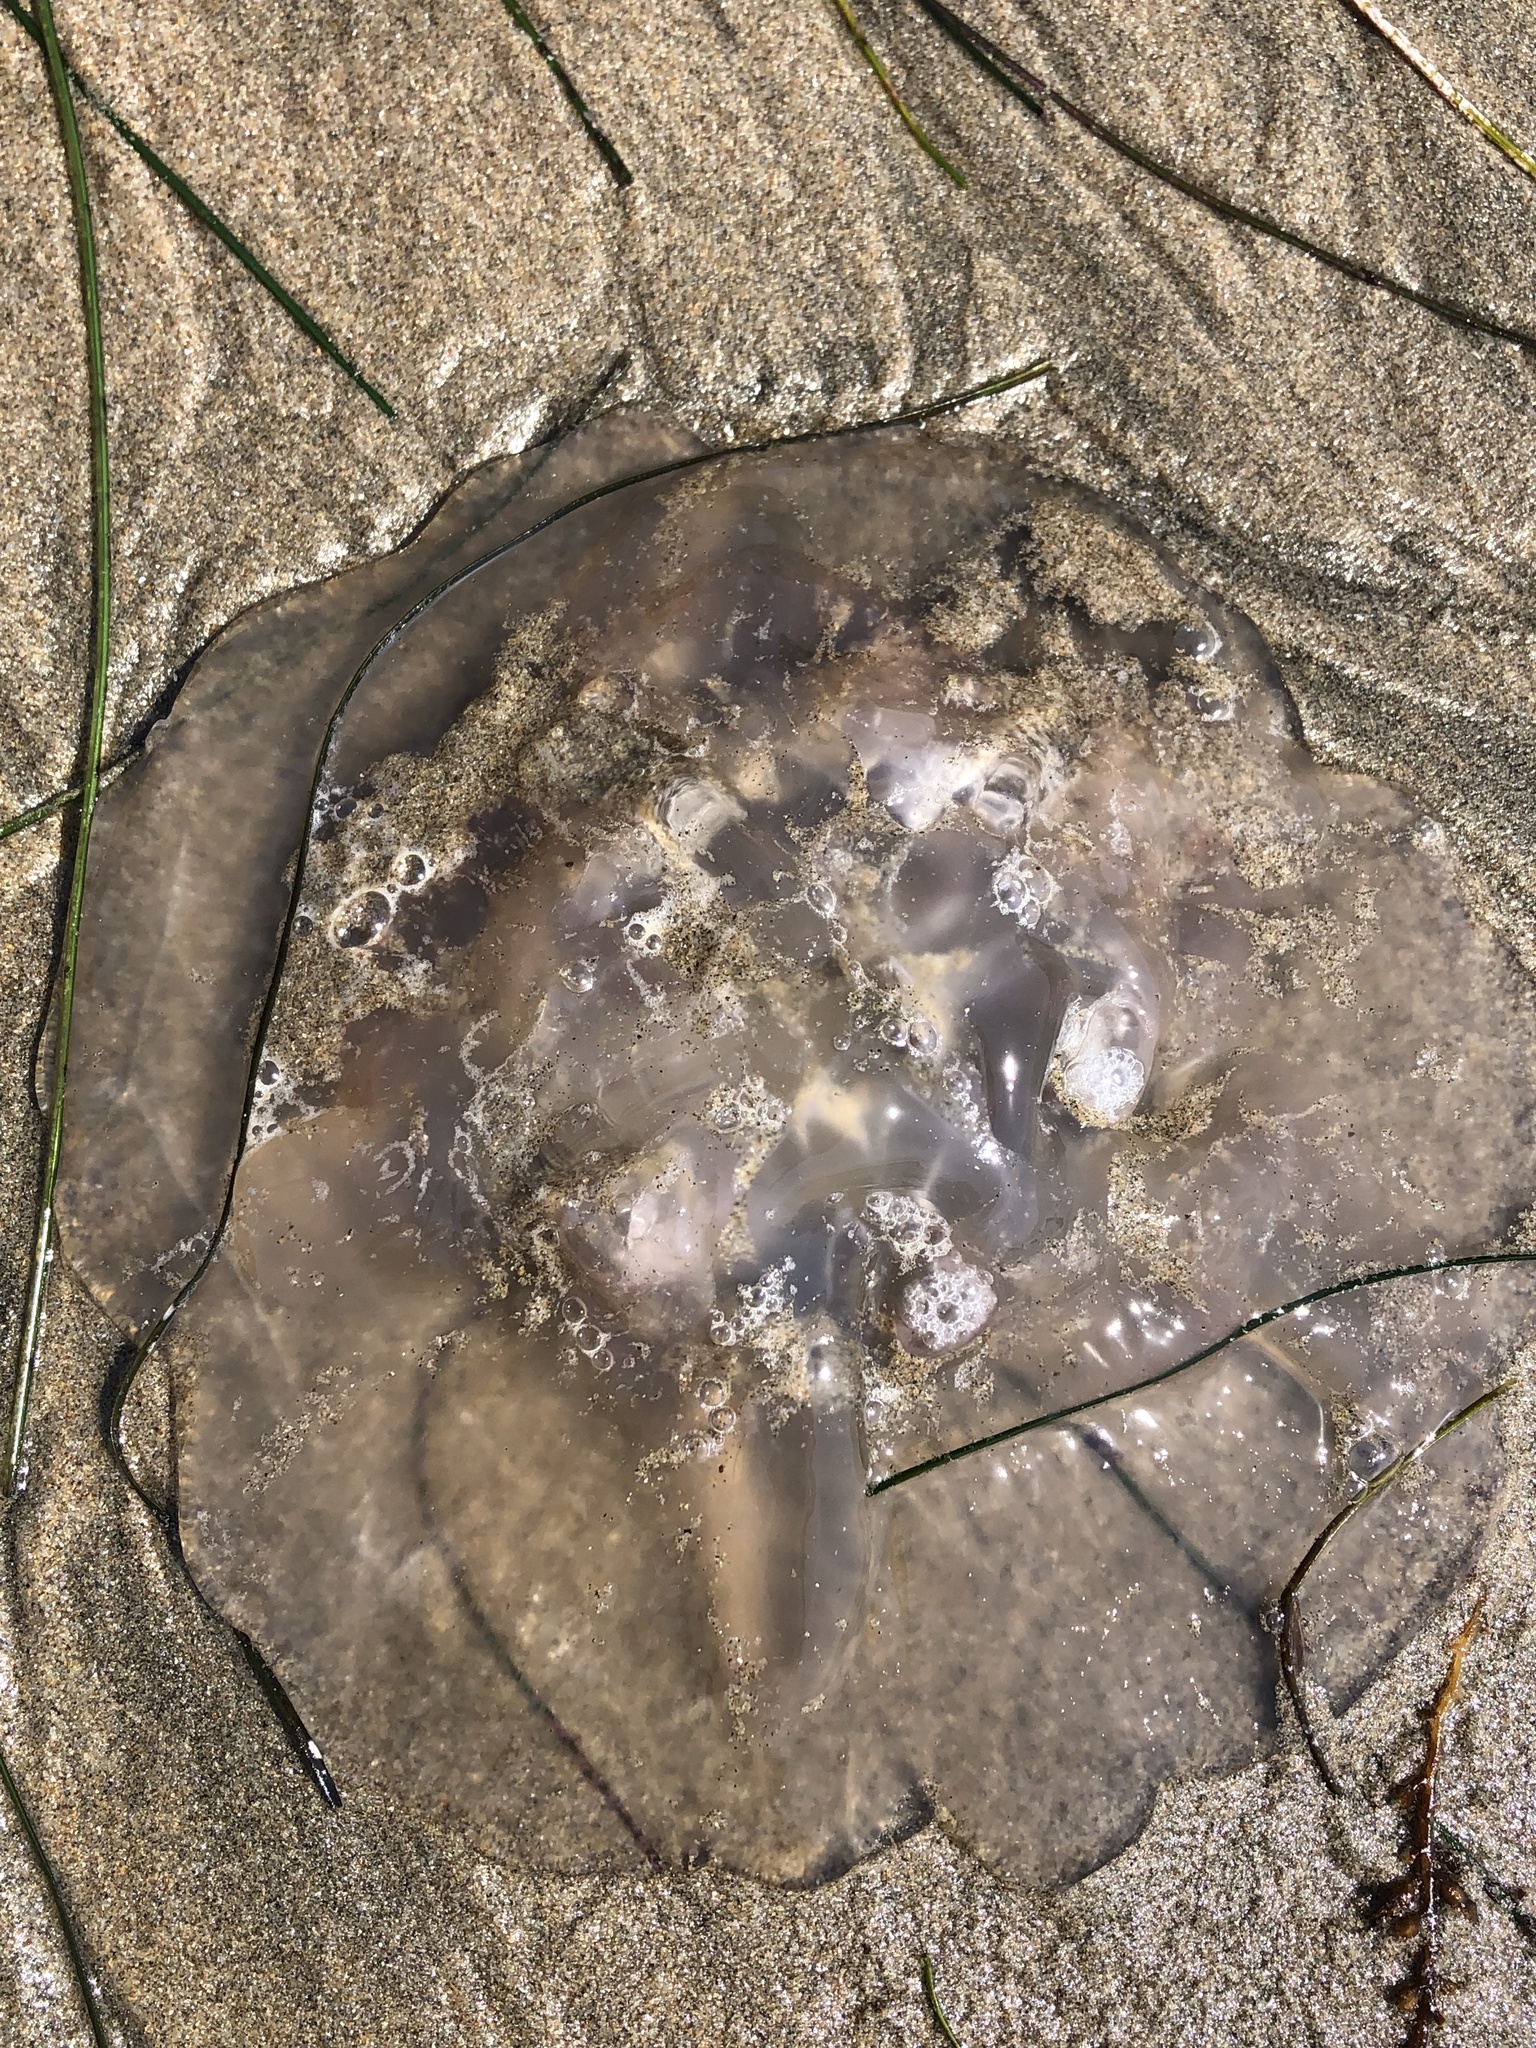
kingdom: Animalia
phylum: Cnidaria
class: Scyphozoa
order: Semaeostomeae
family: Ulmaridae
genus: Aurelia
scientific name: Aurelia labiata
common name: Pacific moon jelly
